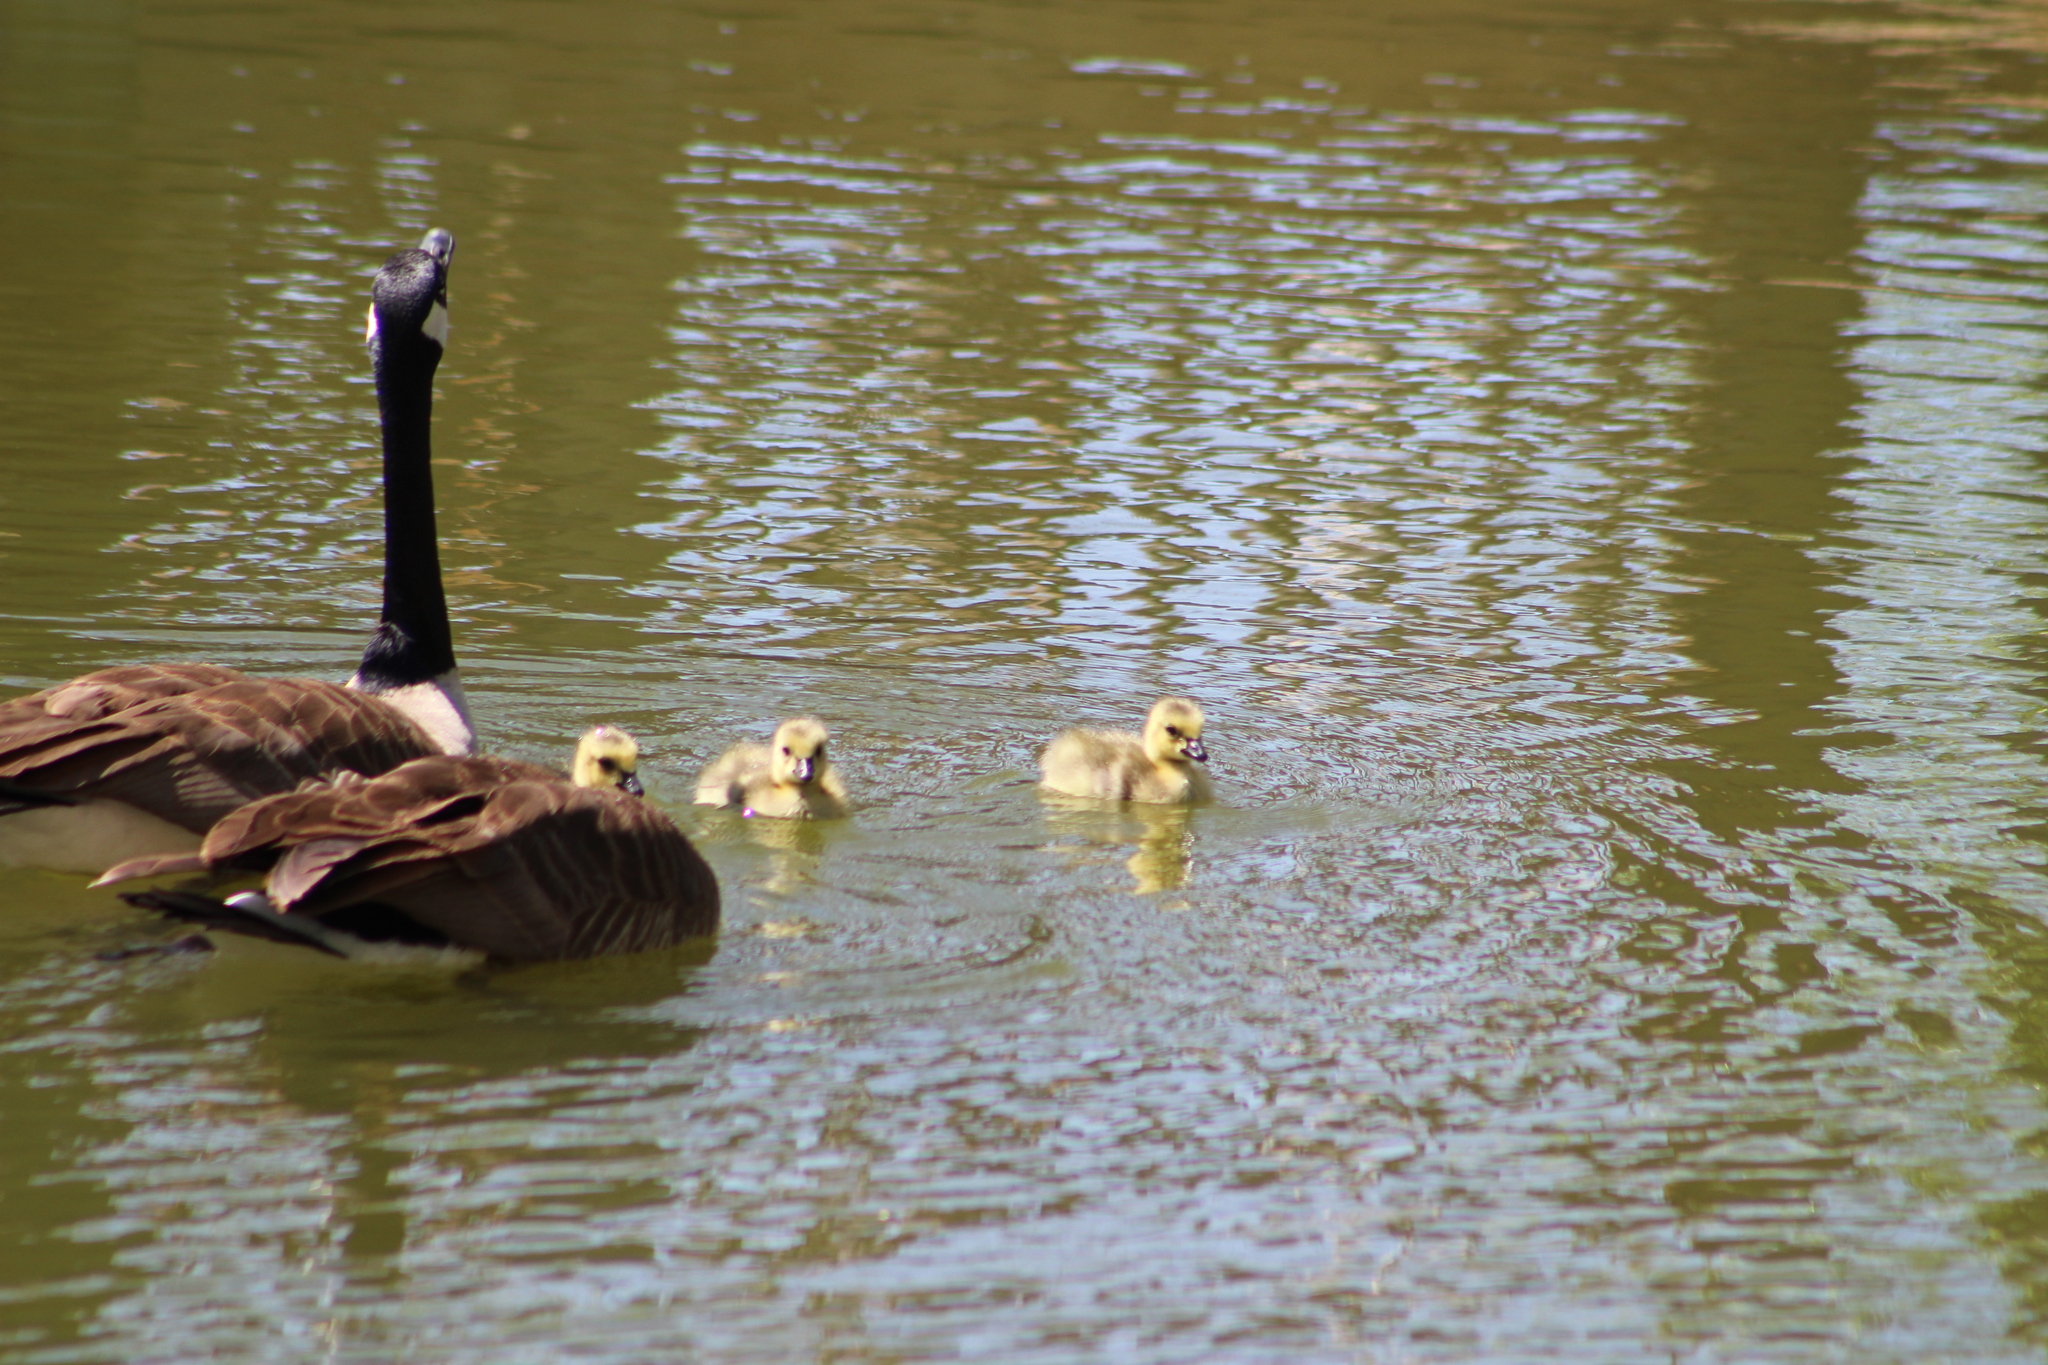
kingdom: Animalia
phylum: Chordata
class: Aves
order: Anseriformes
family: Anatidae
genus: Branta
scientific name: Branta canadensis
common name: Canada goose
